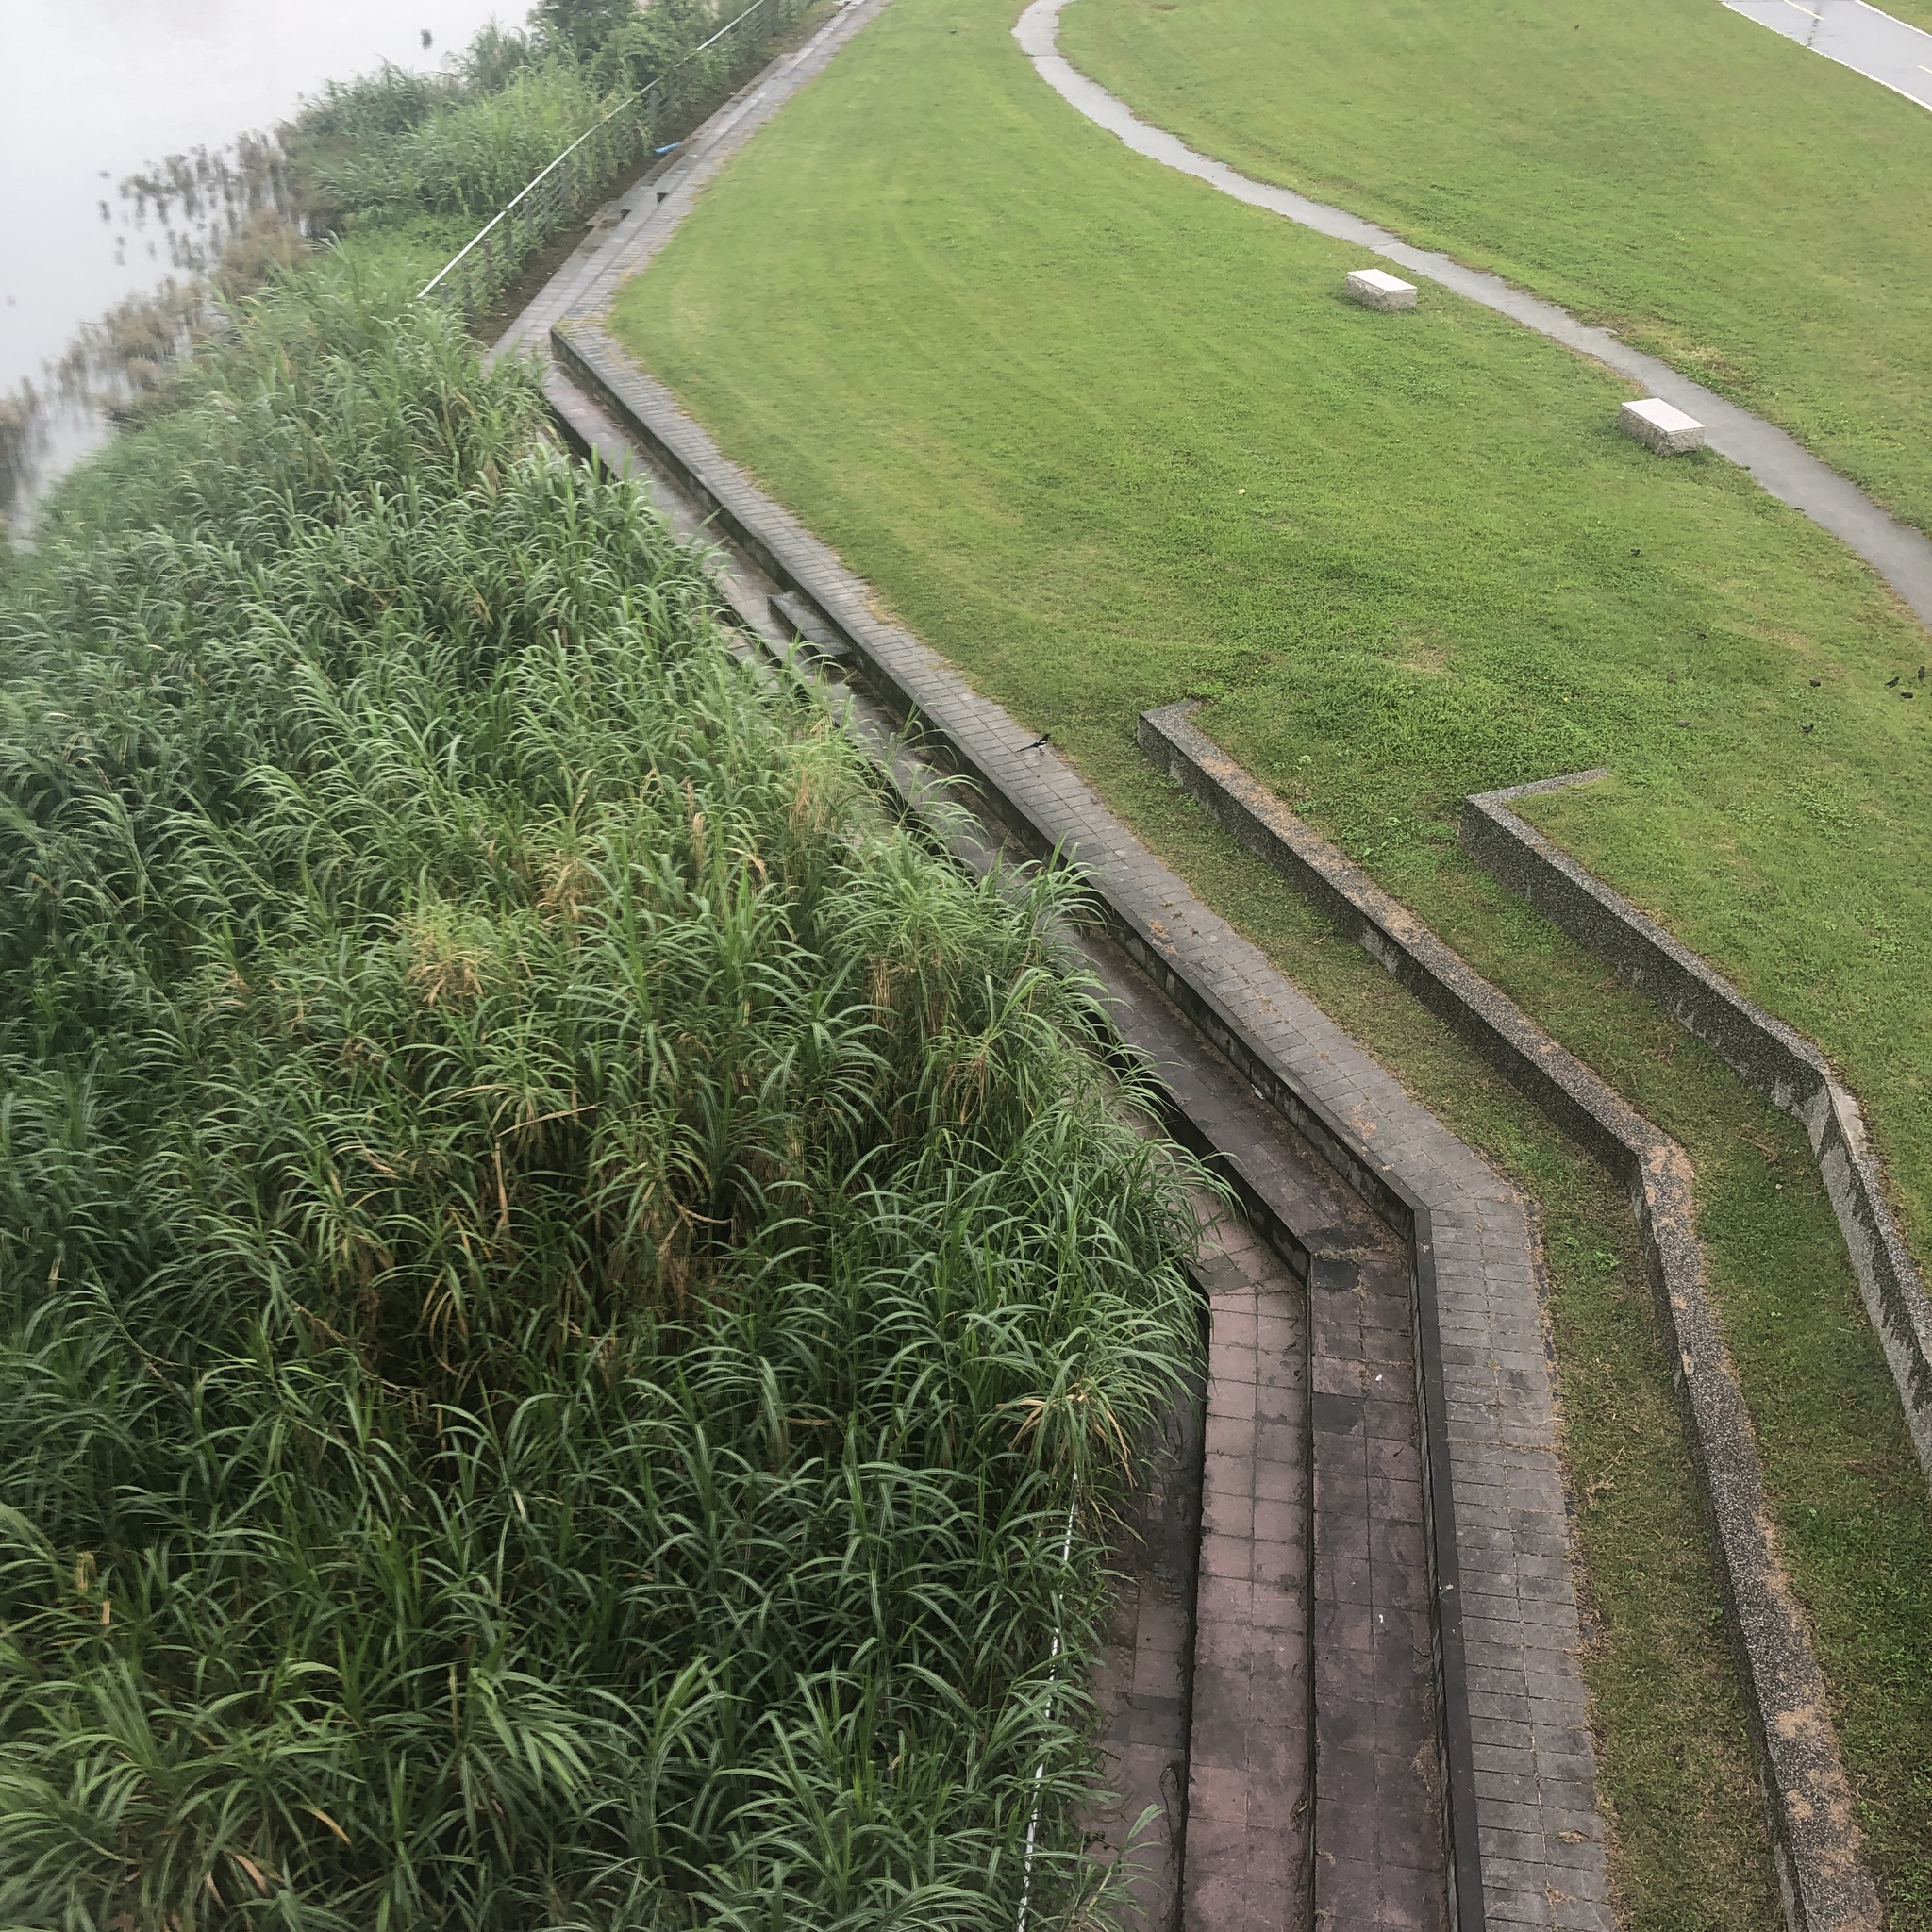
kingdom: Animalia
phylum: Chordata
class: Aves
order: Passeriformes
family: Corvidae
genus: Pica
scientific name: Pica serica
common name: Oriental magpie
